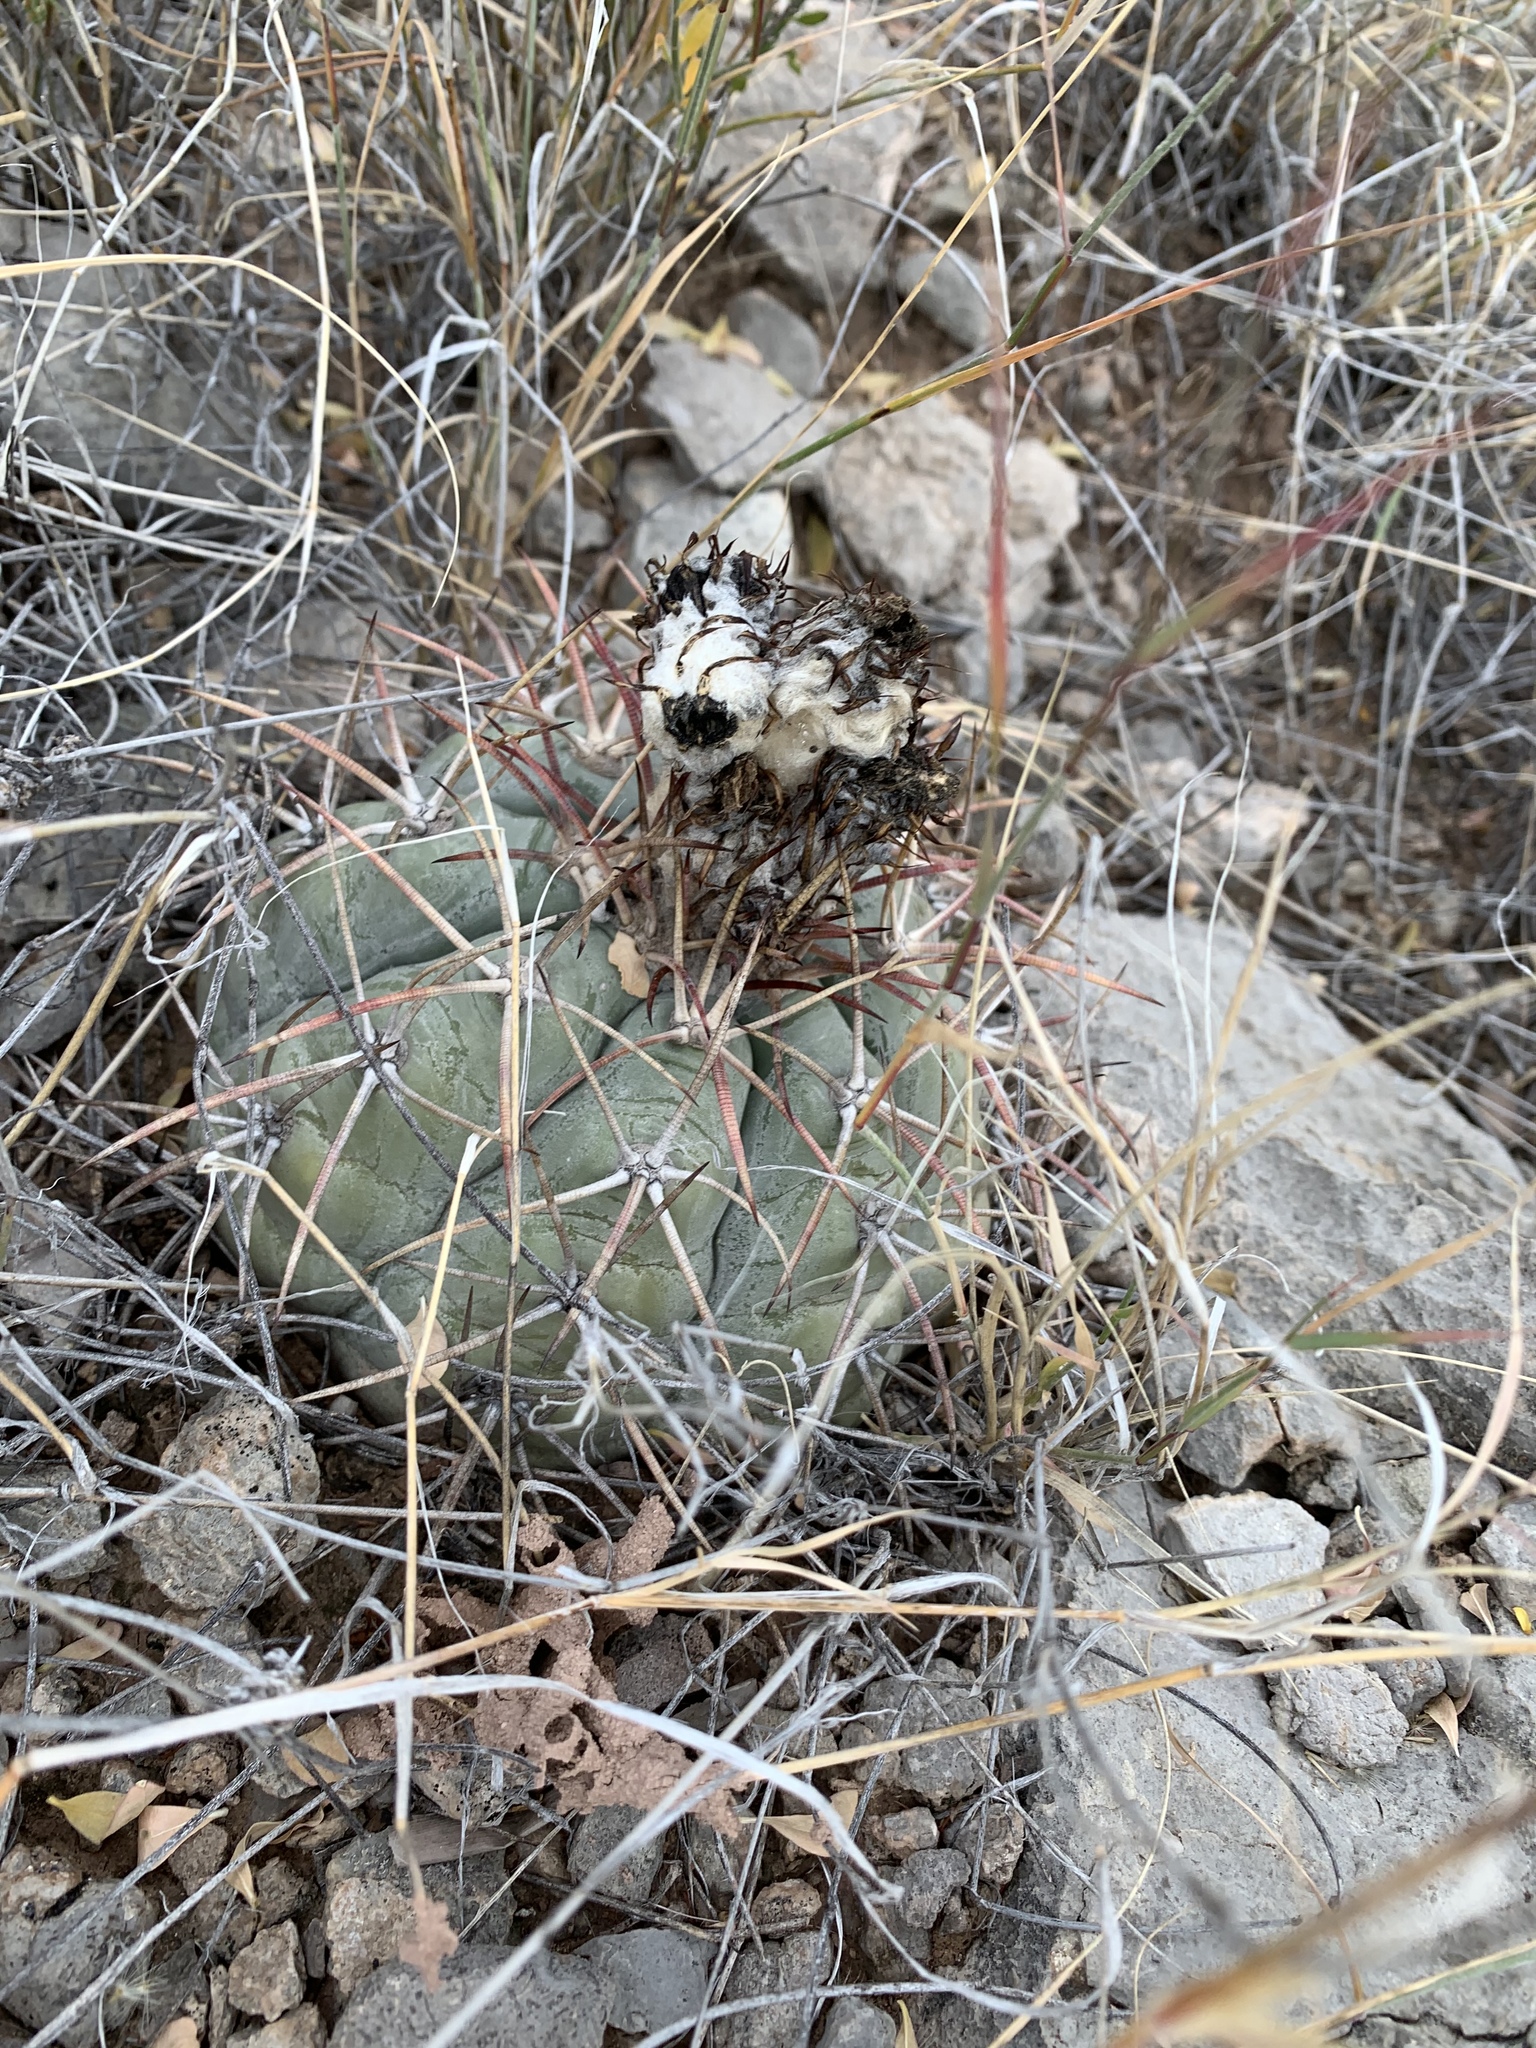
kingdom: Plantae
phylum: Tracheophyta
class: Magnoliopsida
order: Caryophyllales
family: Cactaceae
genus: Echinocactus
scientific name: Echinocactus horizonthalonius
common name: Devilshead
